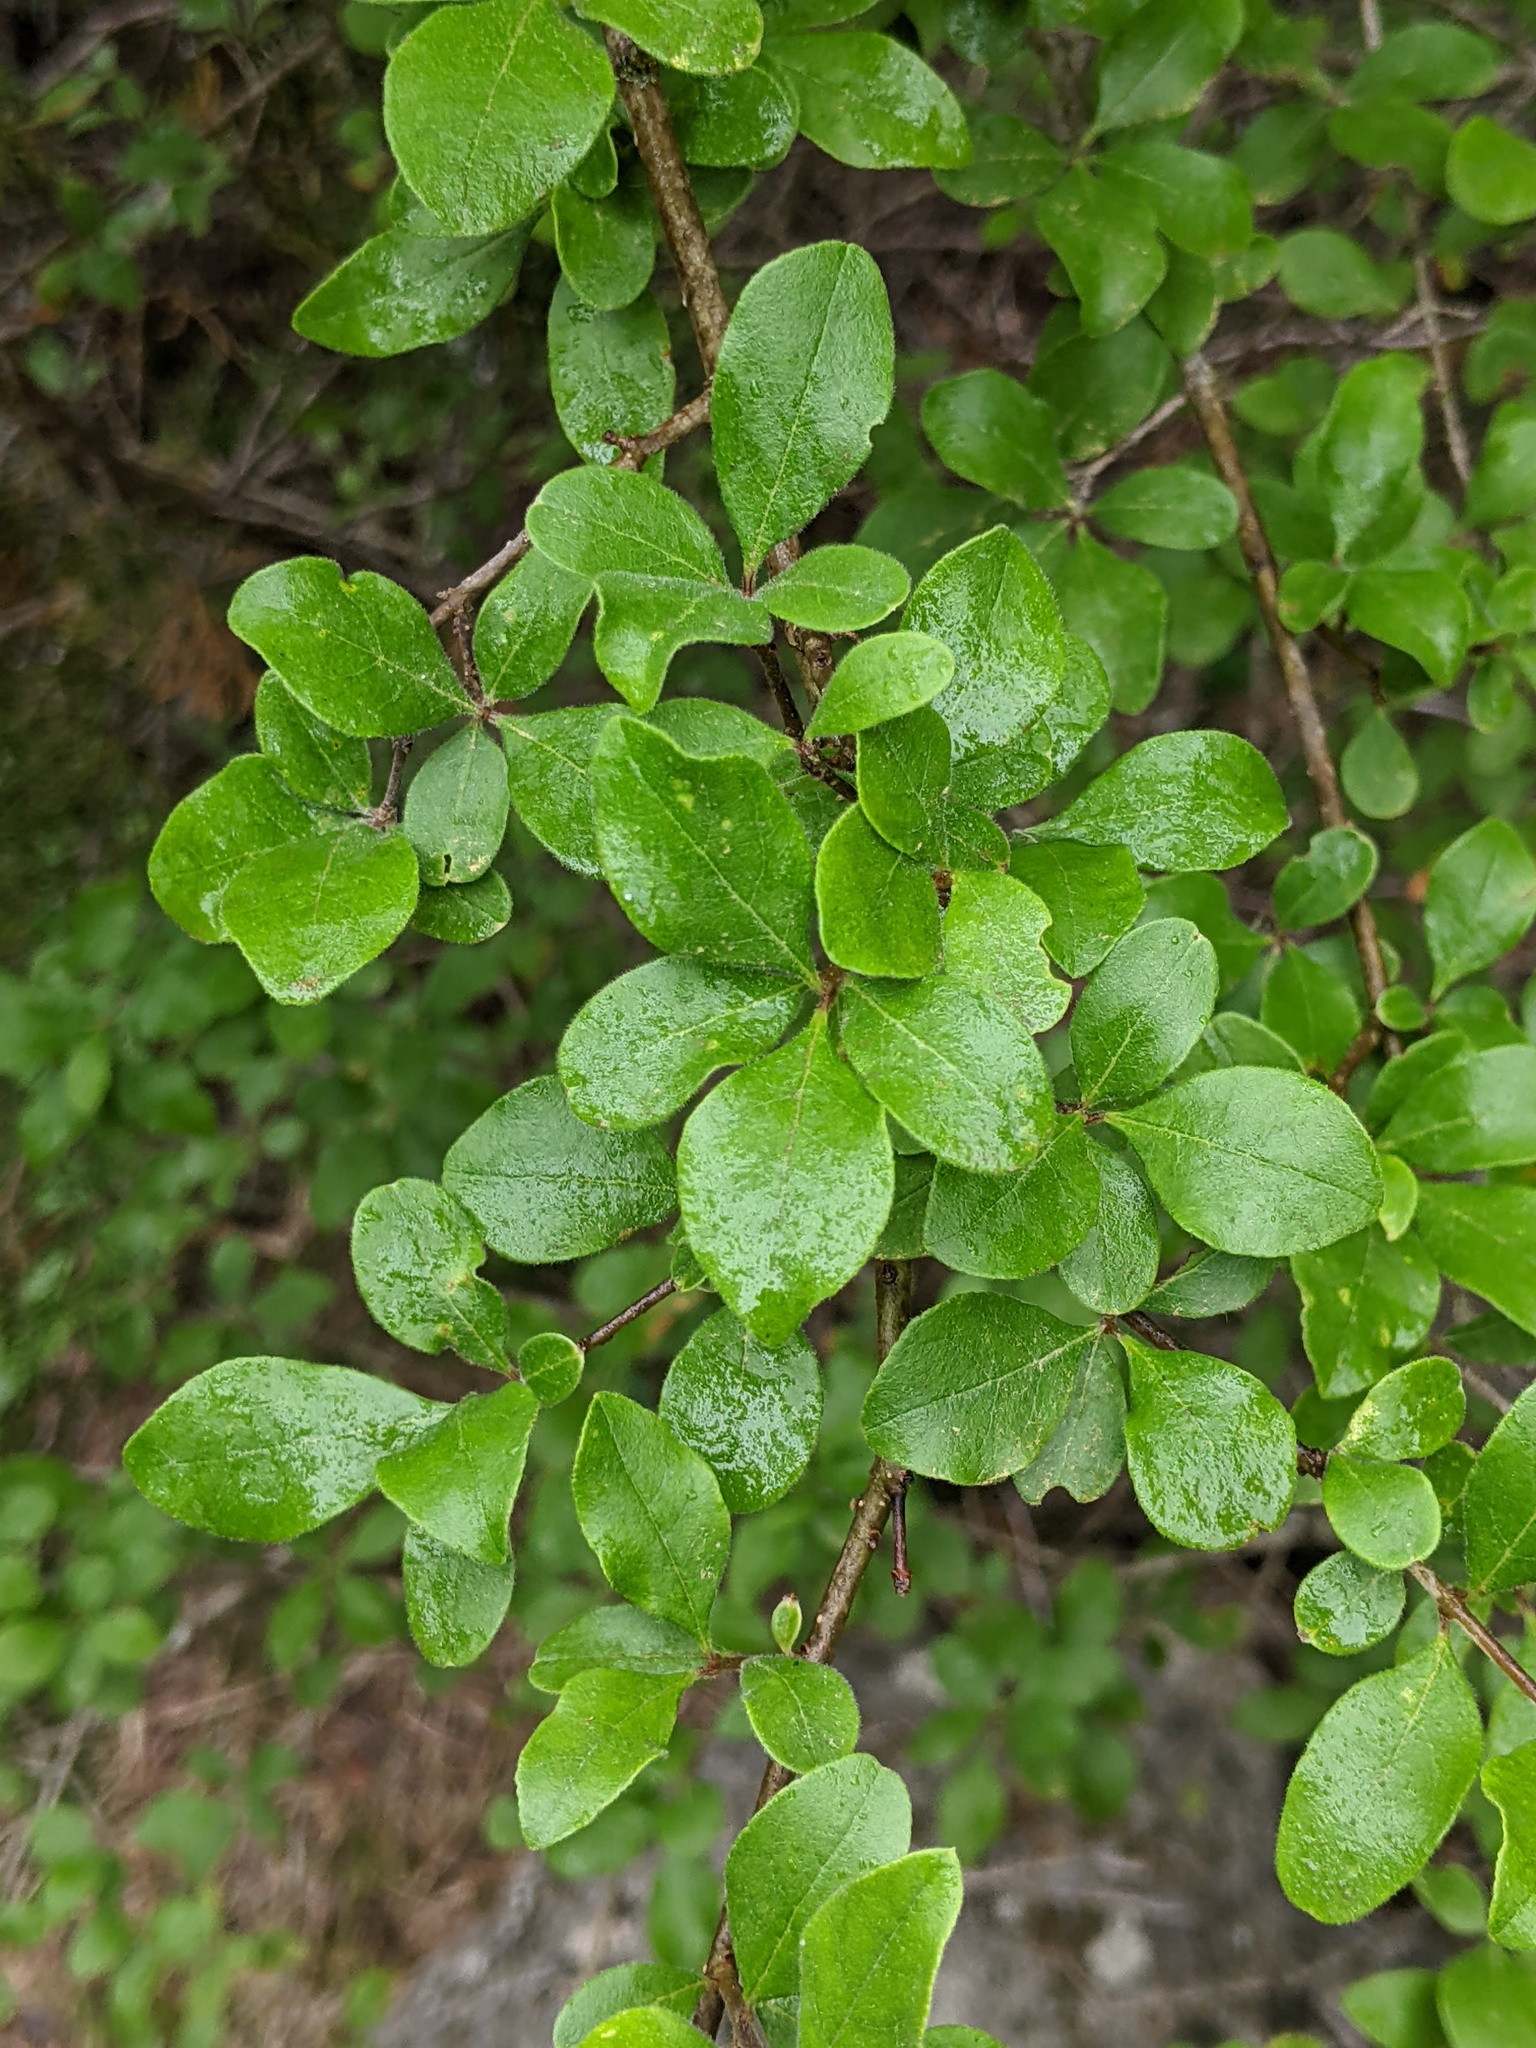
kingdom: Plantae
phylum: Tracheophyta
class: Magnoliopsida
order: Lamiales
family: Oleaceae
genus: Forestiera
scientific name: Forestiera pubescens
